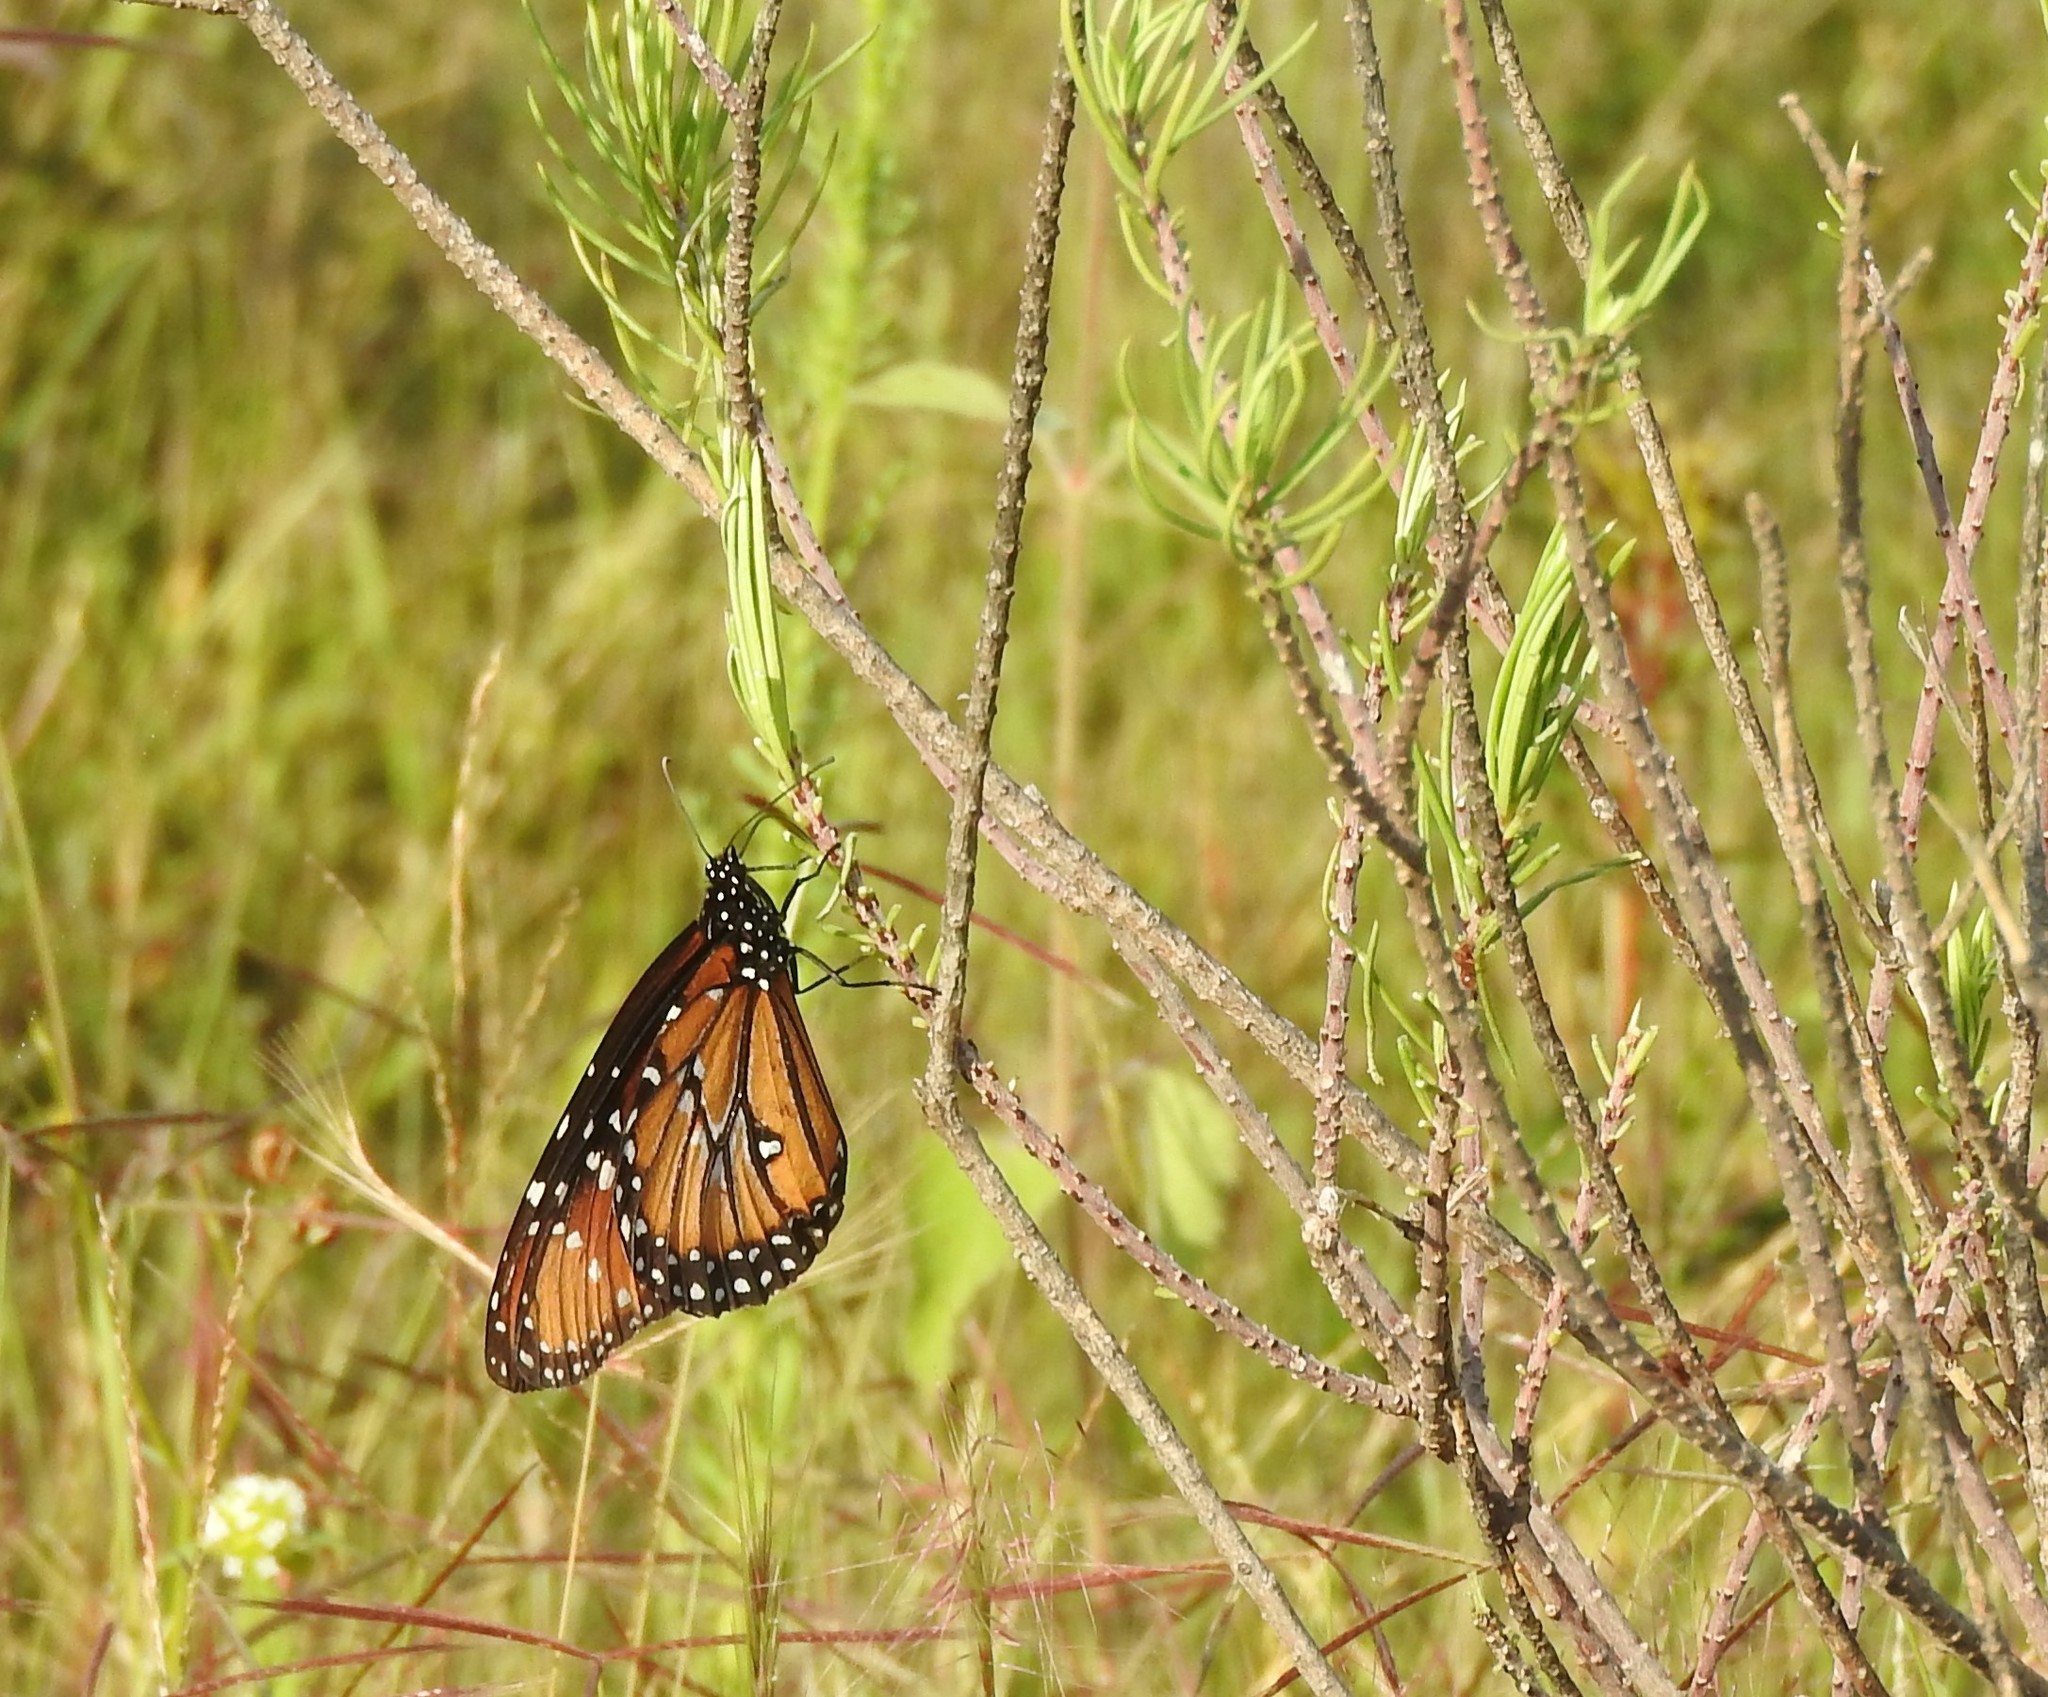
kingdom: Animalia
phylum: Arthropoda
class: Insecta
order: Lepidoptera
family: Nymphalidae
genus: Danaus
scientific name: Danaus gilippus
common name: Queen
